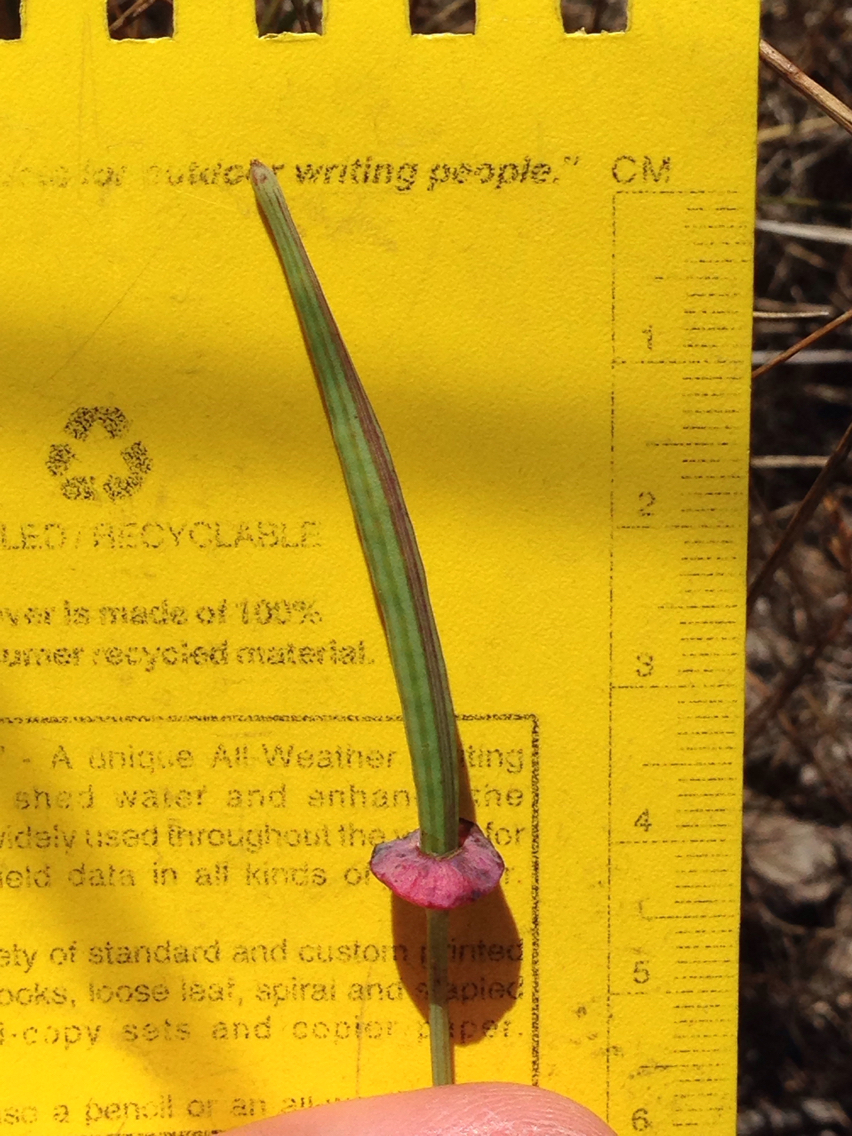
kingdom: Plantae
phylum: Tracheophyta
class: Magnoliopsida
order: Ranunculales
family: Papaveraceae
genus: Eschscholzia
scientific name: Eschscholzia californica
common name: California poppy
